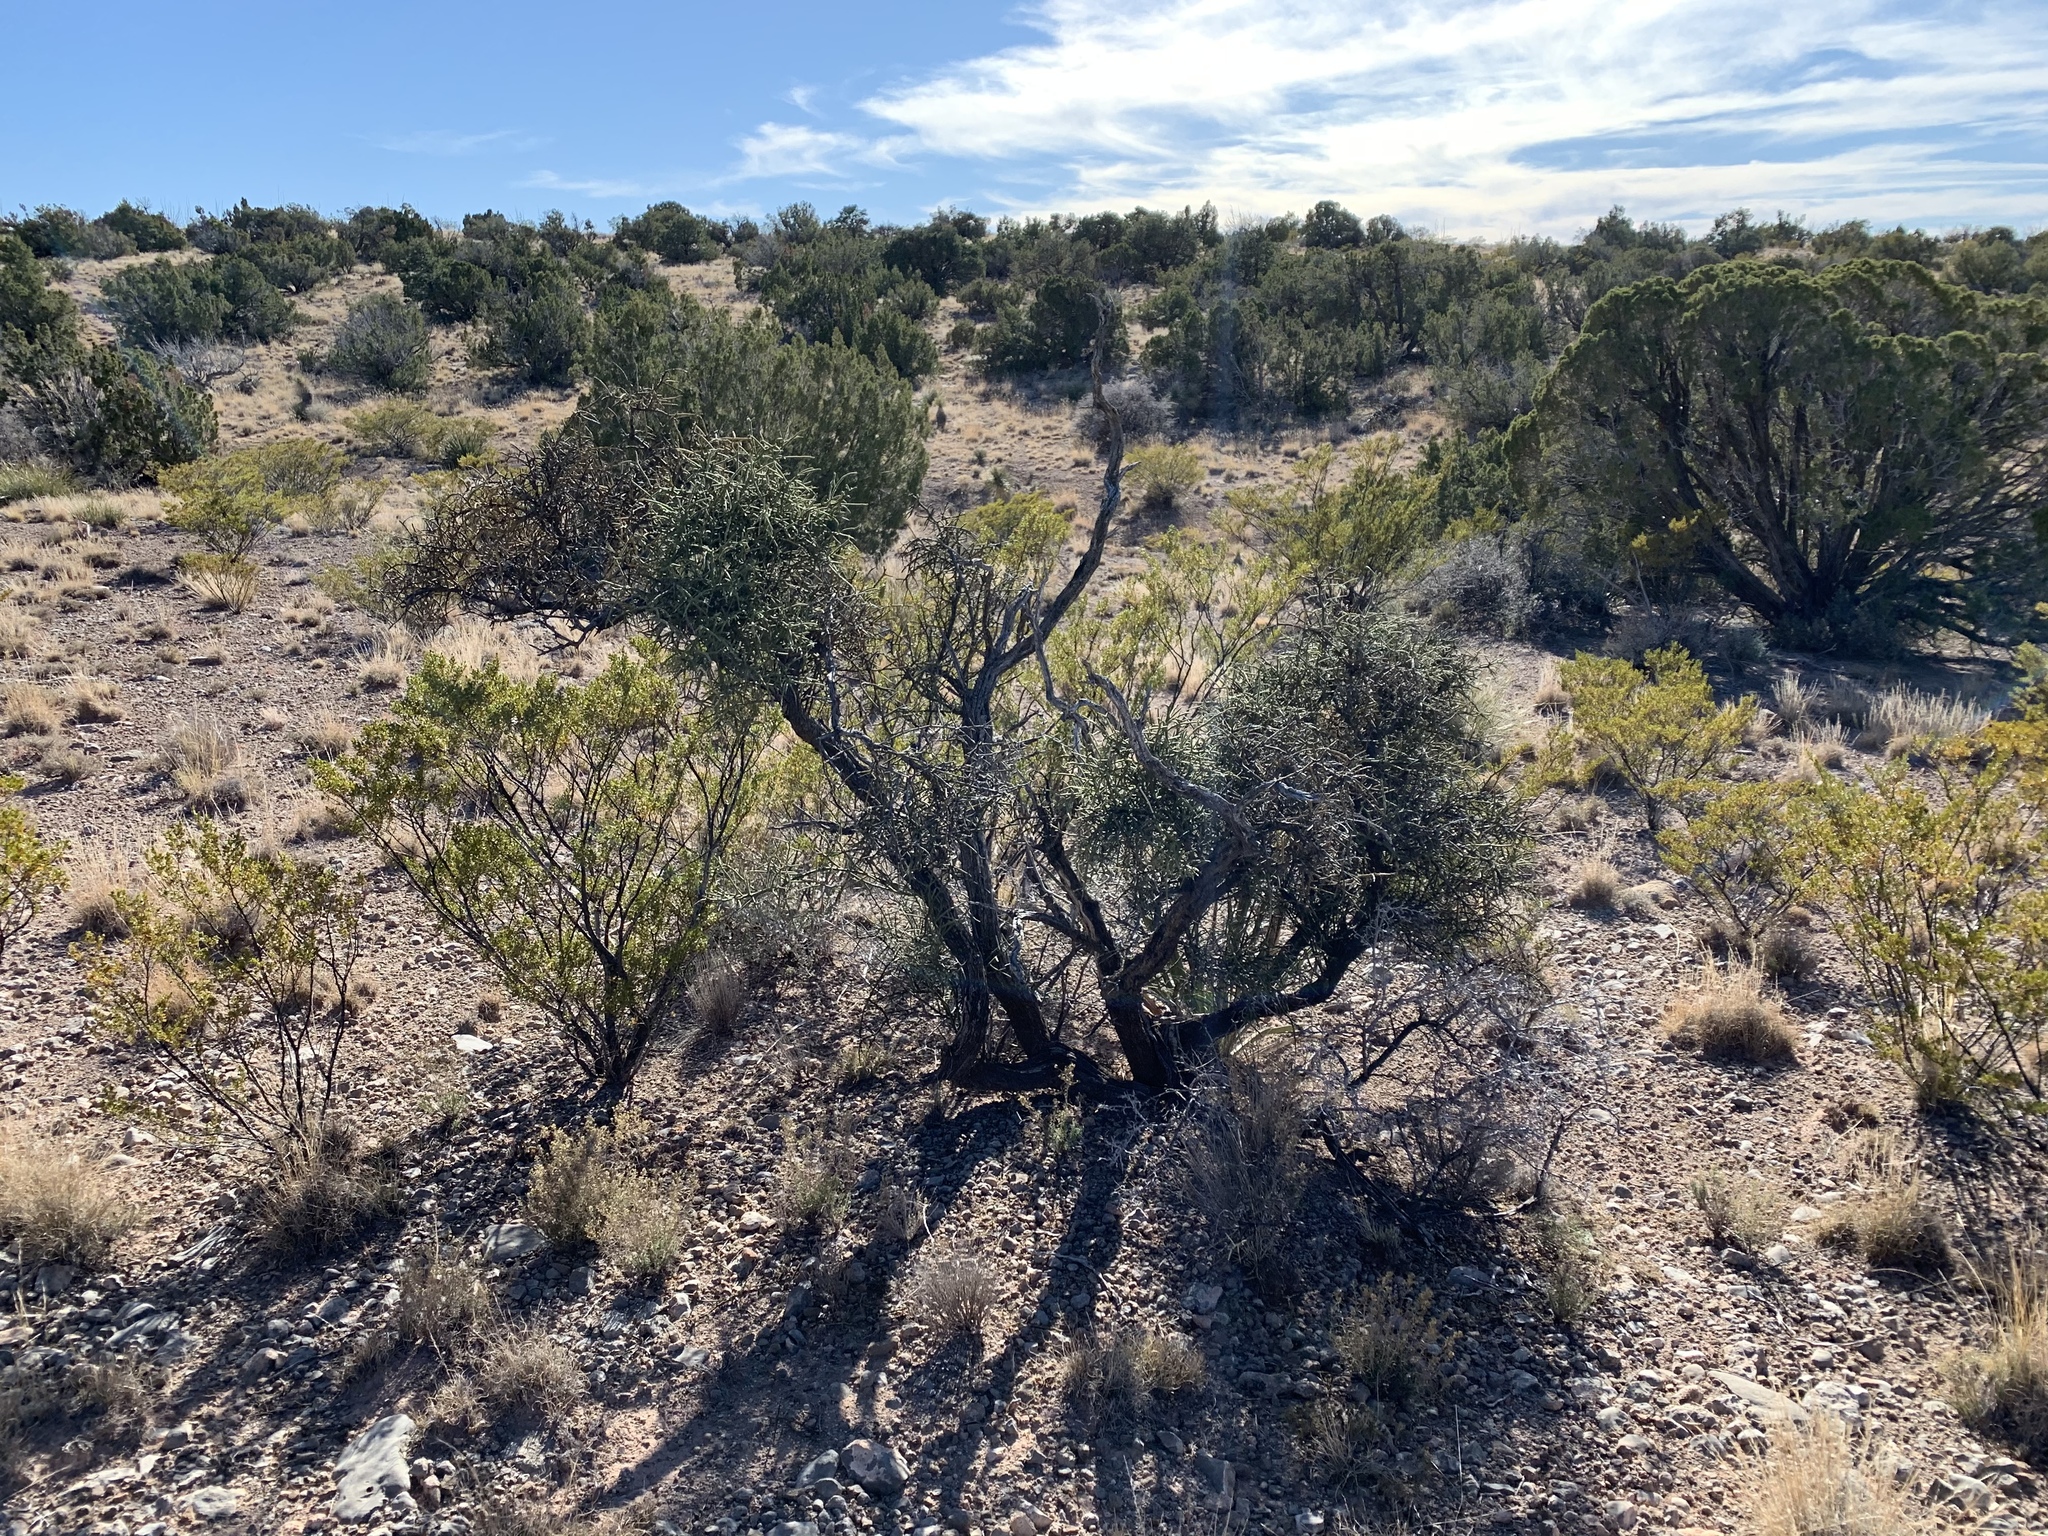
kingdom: Plantae
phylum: Tracheophyta
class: Magnoliopsida
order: Brassicales
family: Koeberliniaceae
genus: Koeberlinia
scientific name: Koeberlinia spinosa
